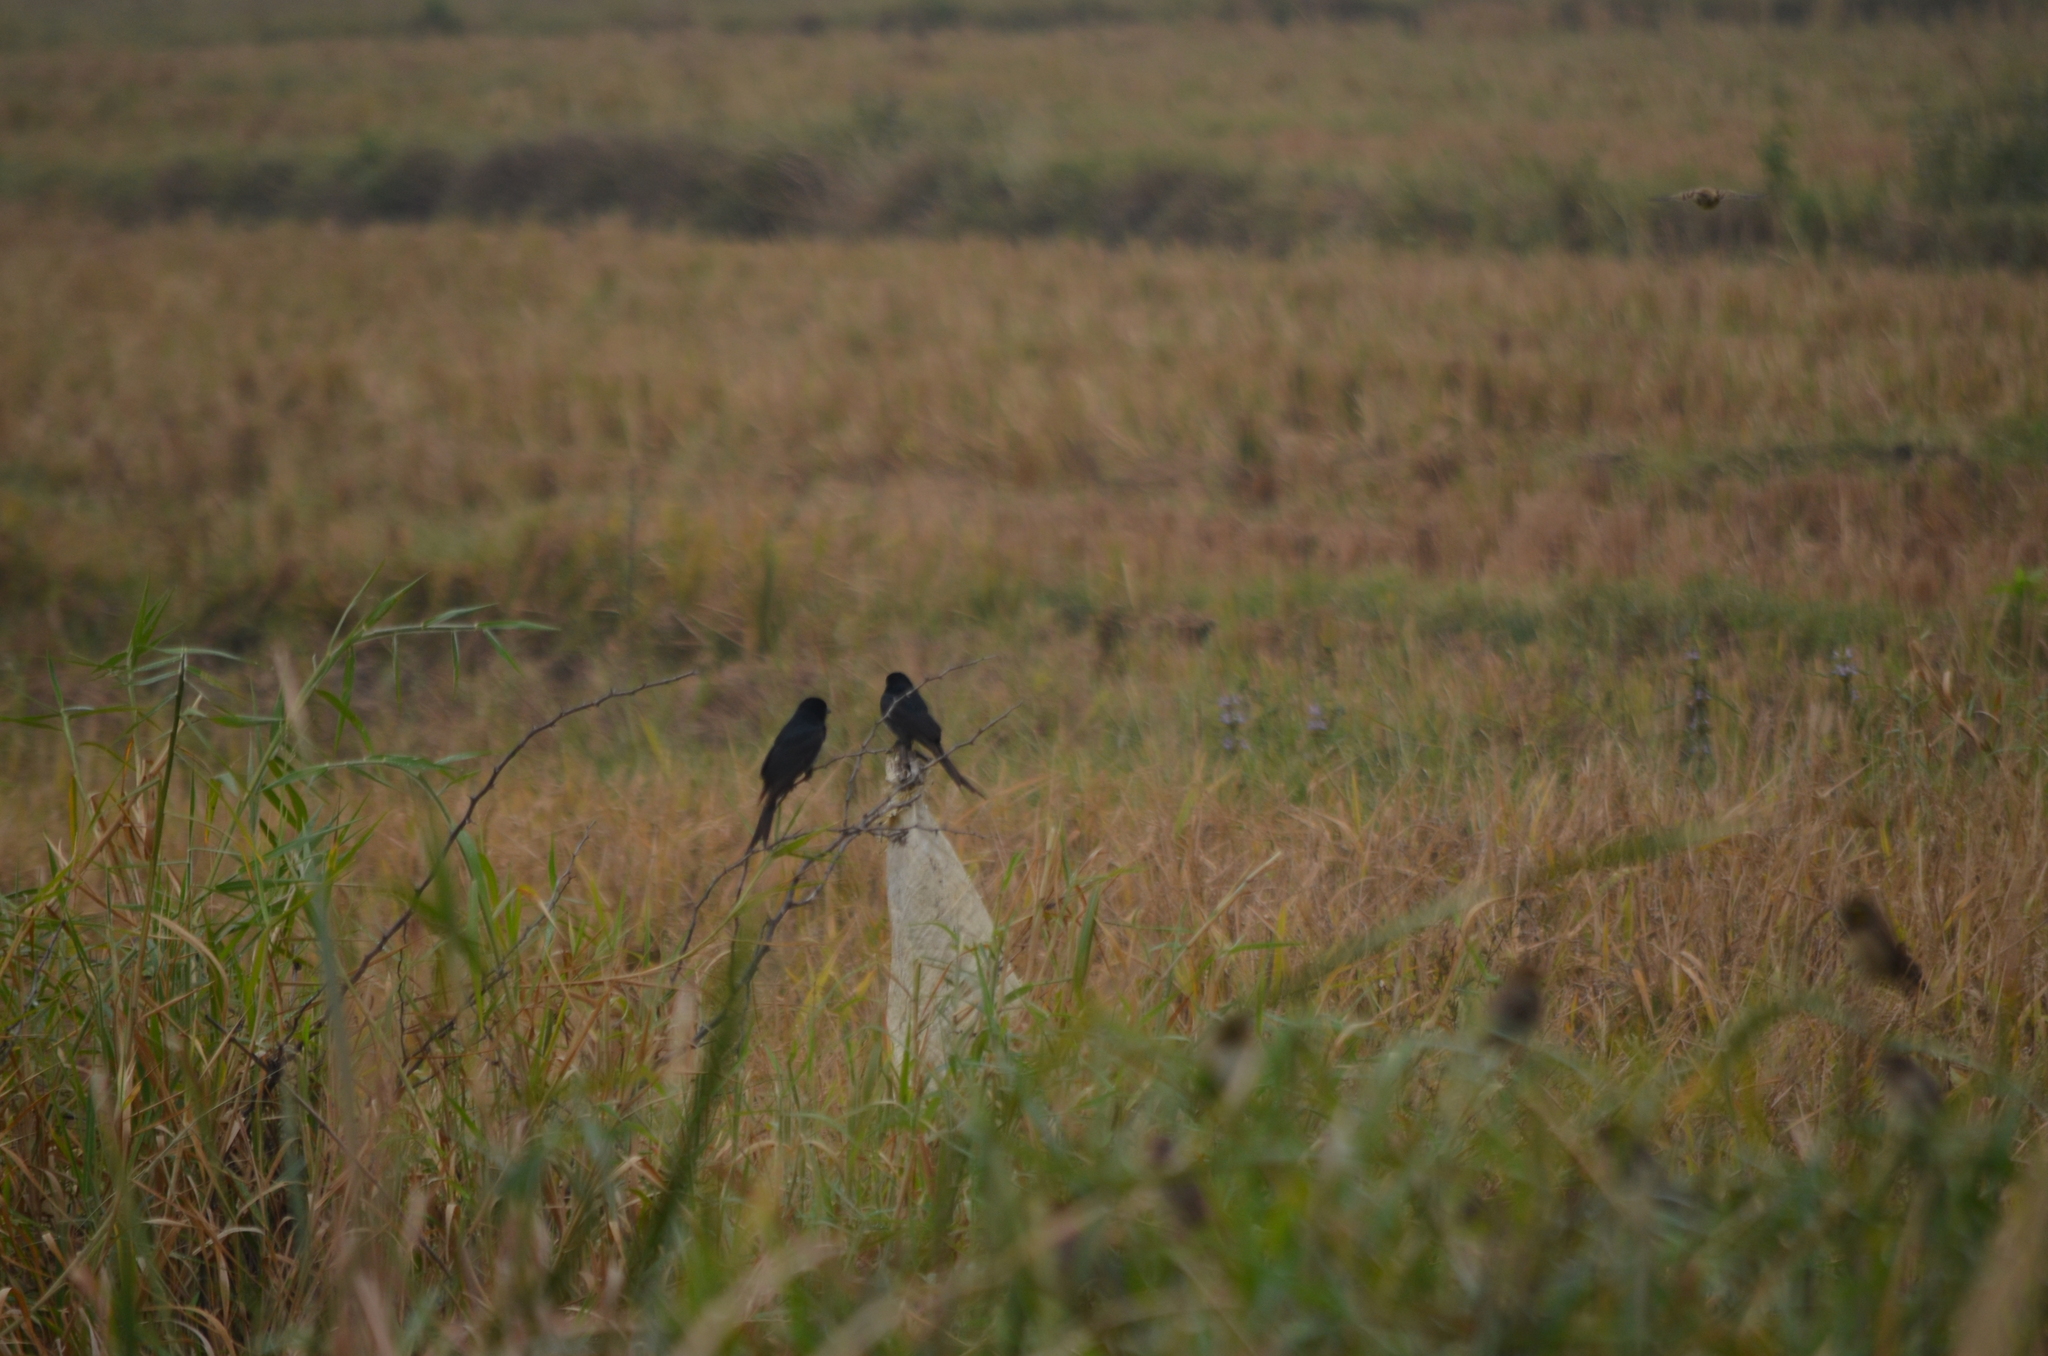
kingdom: Animalia
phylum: Chordata
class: Aves
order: Passeriformes
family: Dicruridae
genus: Dicrurus
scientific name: Dicrurus macrocercus
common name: Black drongo
